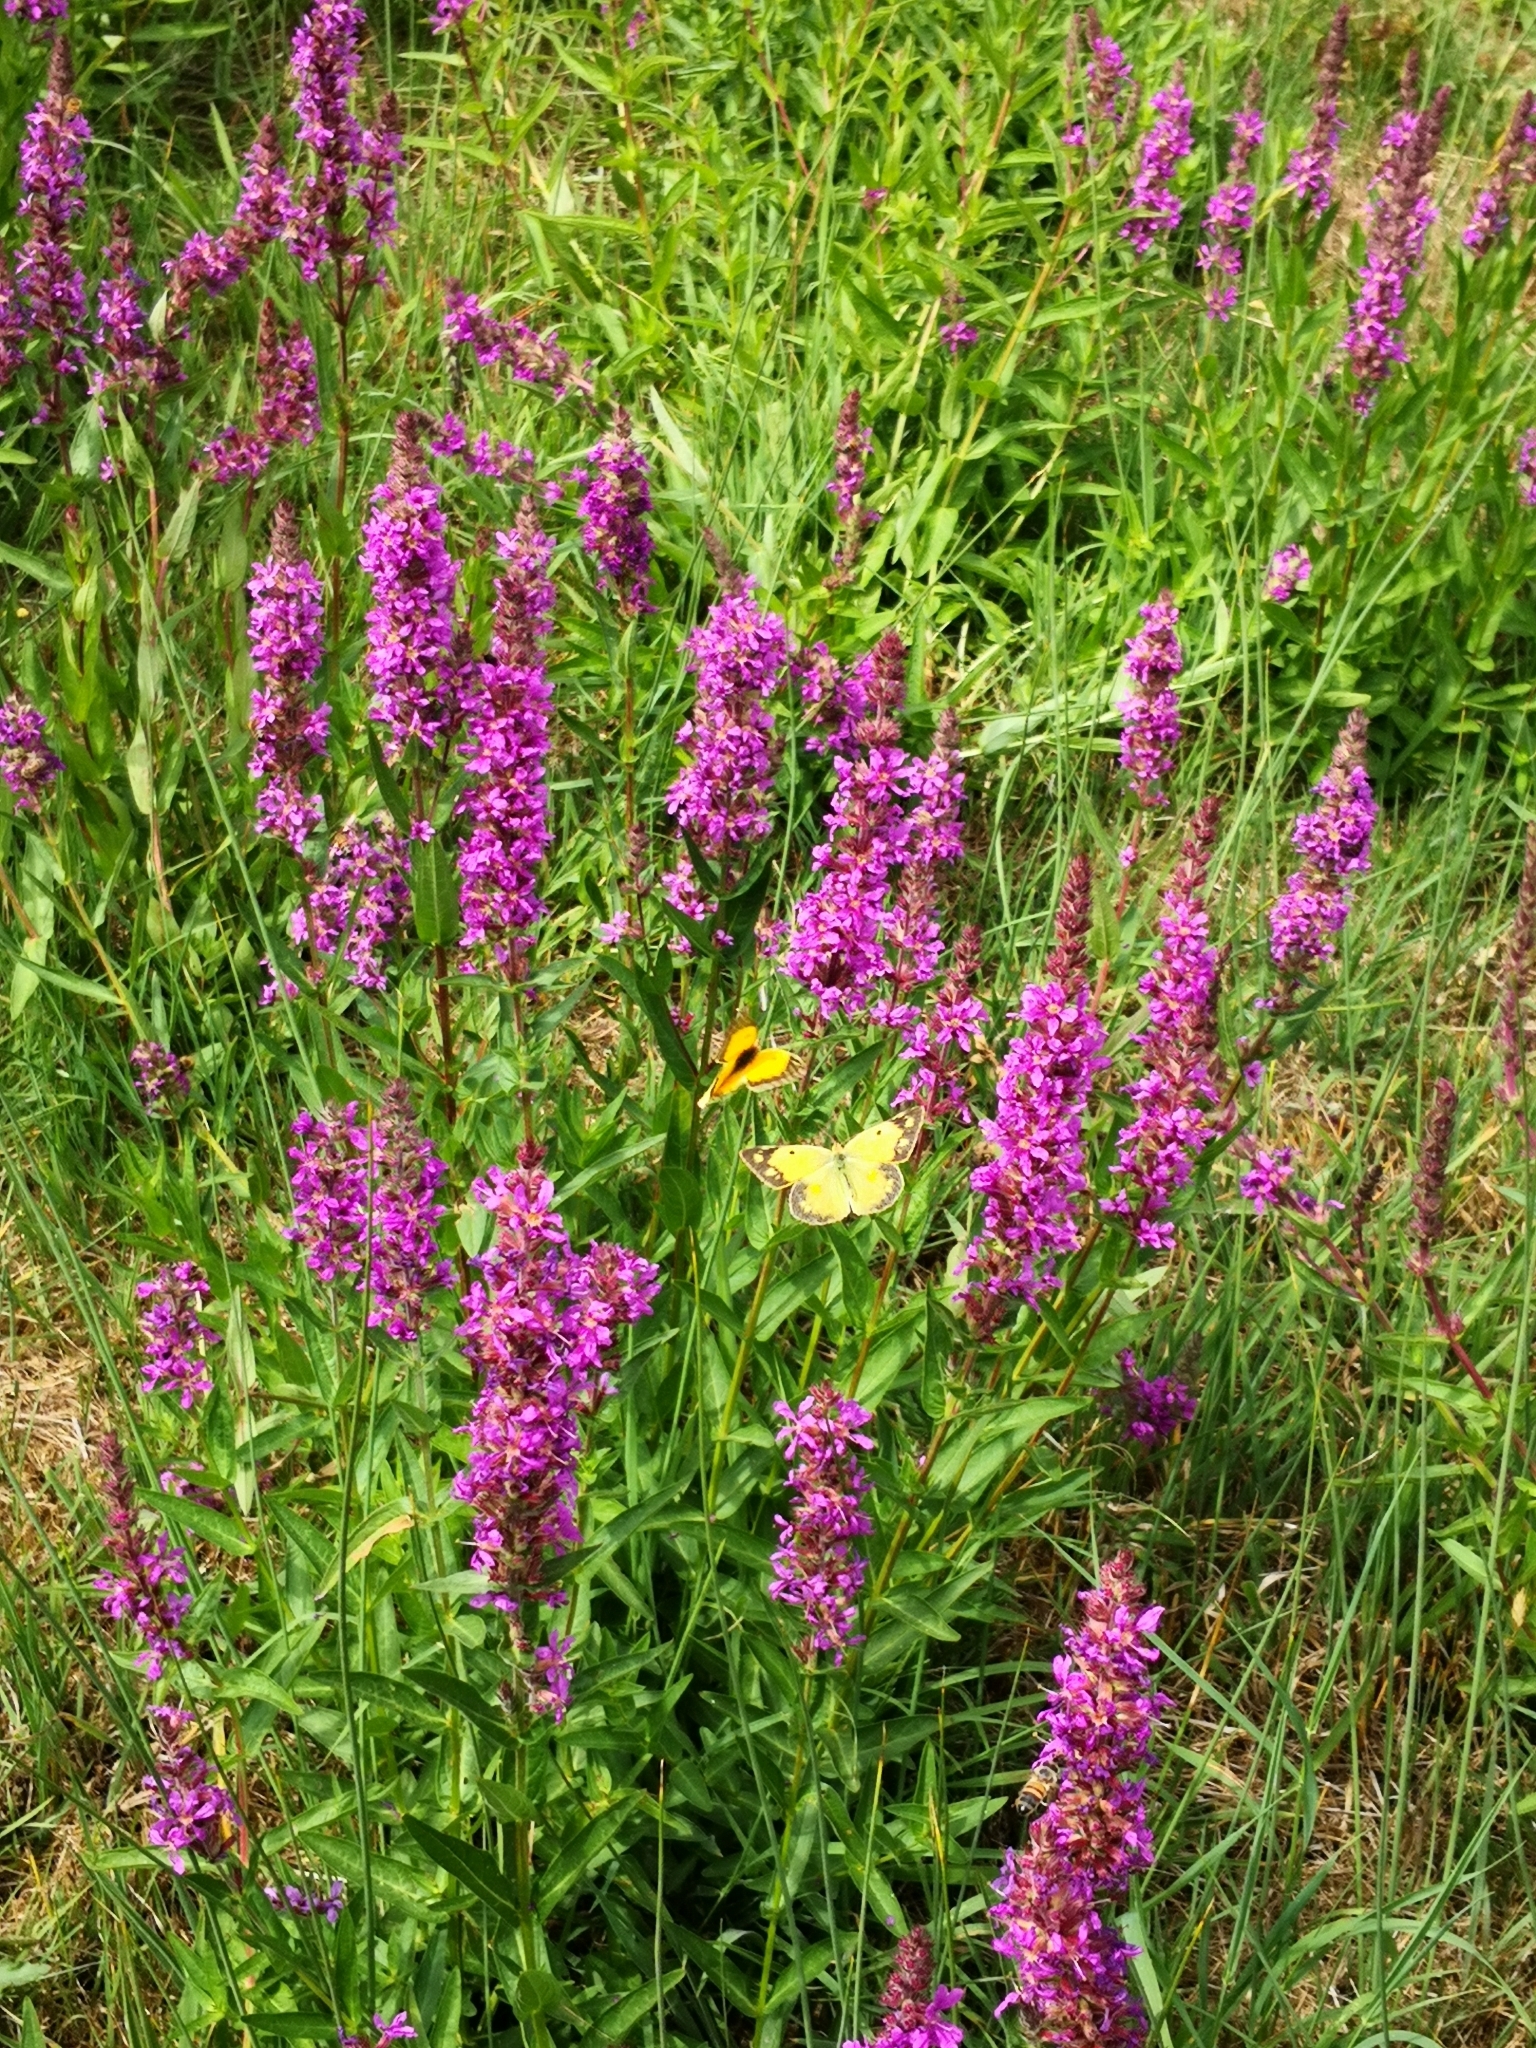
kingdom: Animalia
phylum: Arthropoda
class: Insecta
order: Lepidoptera
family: Pieridae
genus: Colias
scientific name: Colias croceus
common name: Clouded yellow
